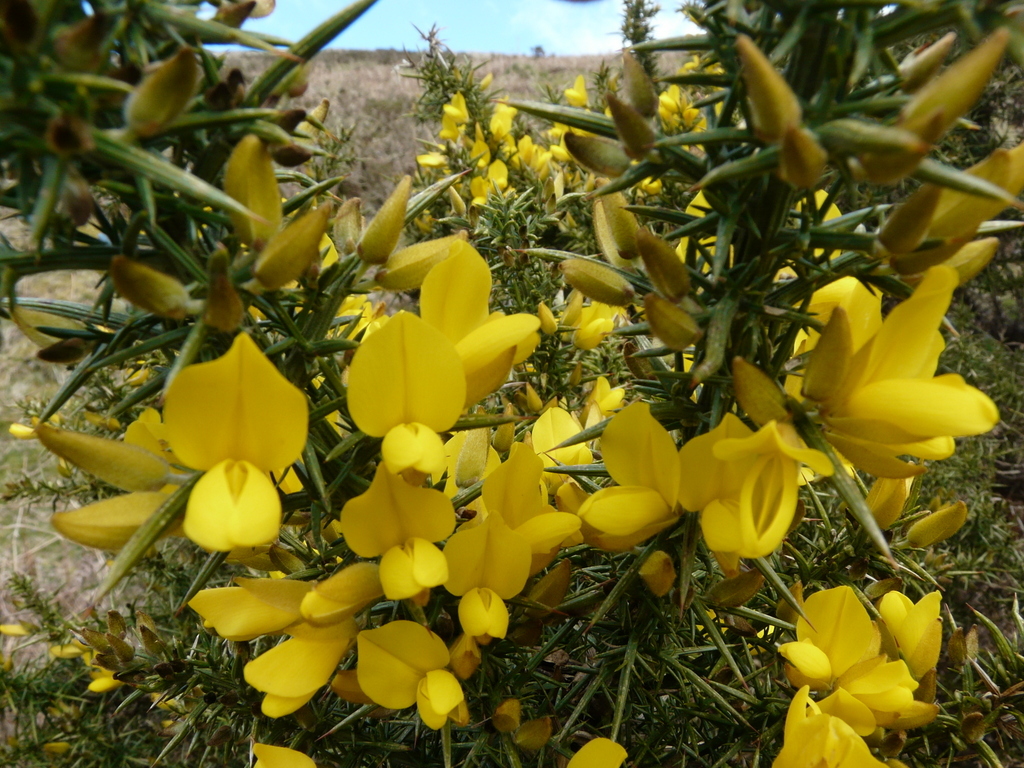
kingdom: Plantae
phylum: Tracheophyta
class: Magnoliopsida
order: Fabales
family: Fabaceae
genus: Ulex
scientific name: Ulex europaeus
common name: Common gorse
